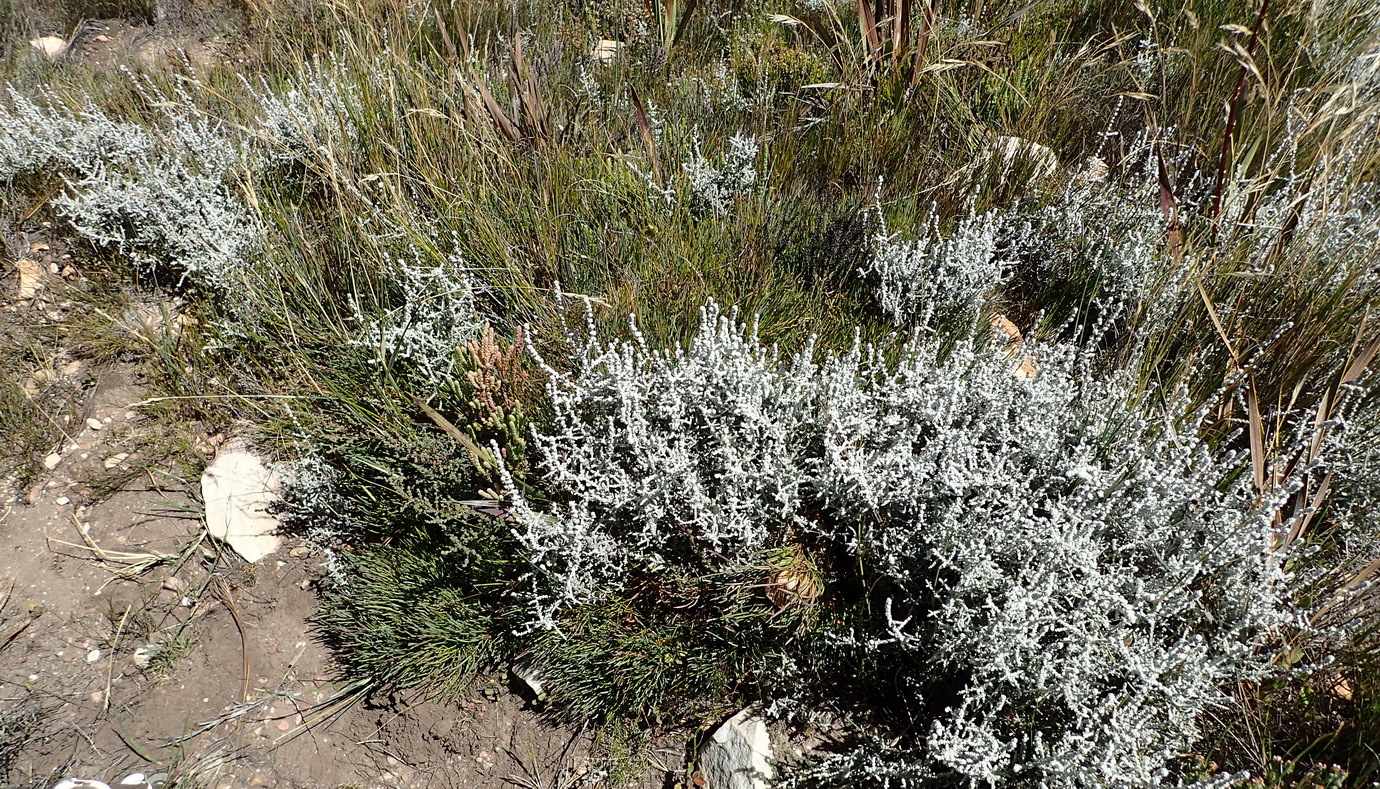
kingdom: Plantae
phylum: Tracheophyta
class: Magnoliopsida
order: Asterales
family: Asteraceae
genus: Seriphium
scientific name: Seriphium plumosum
